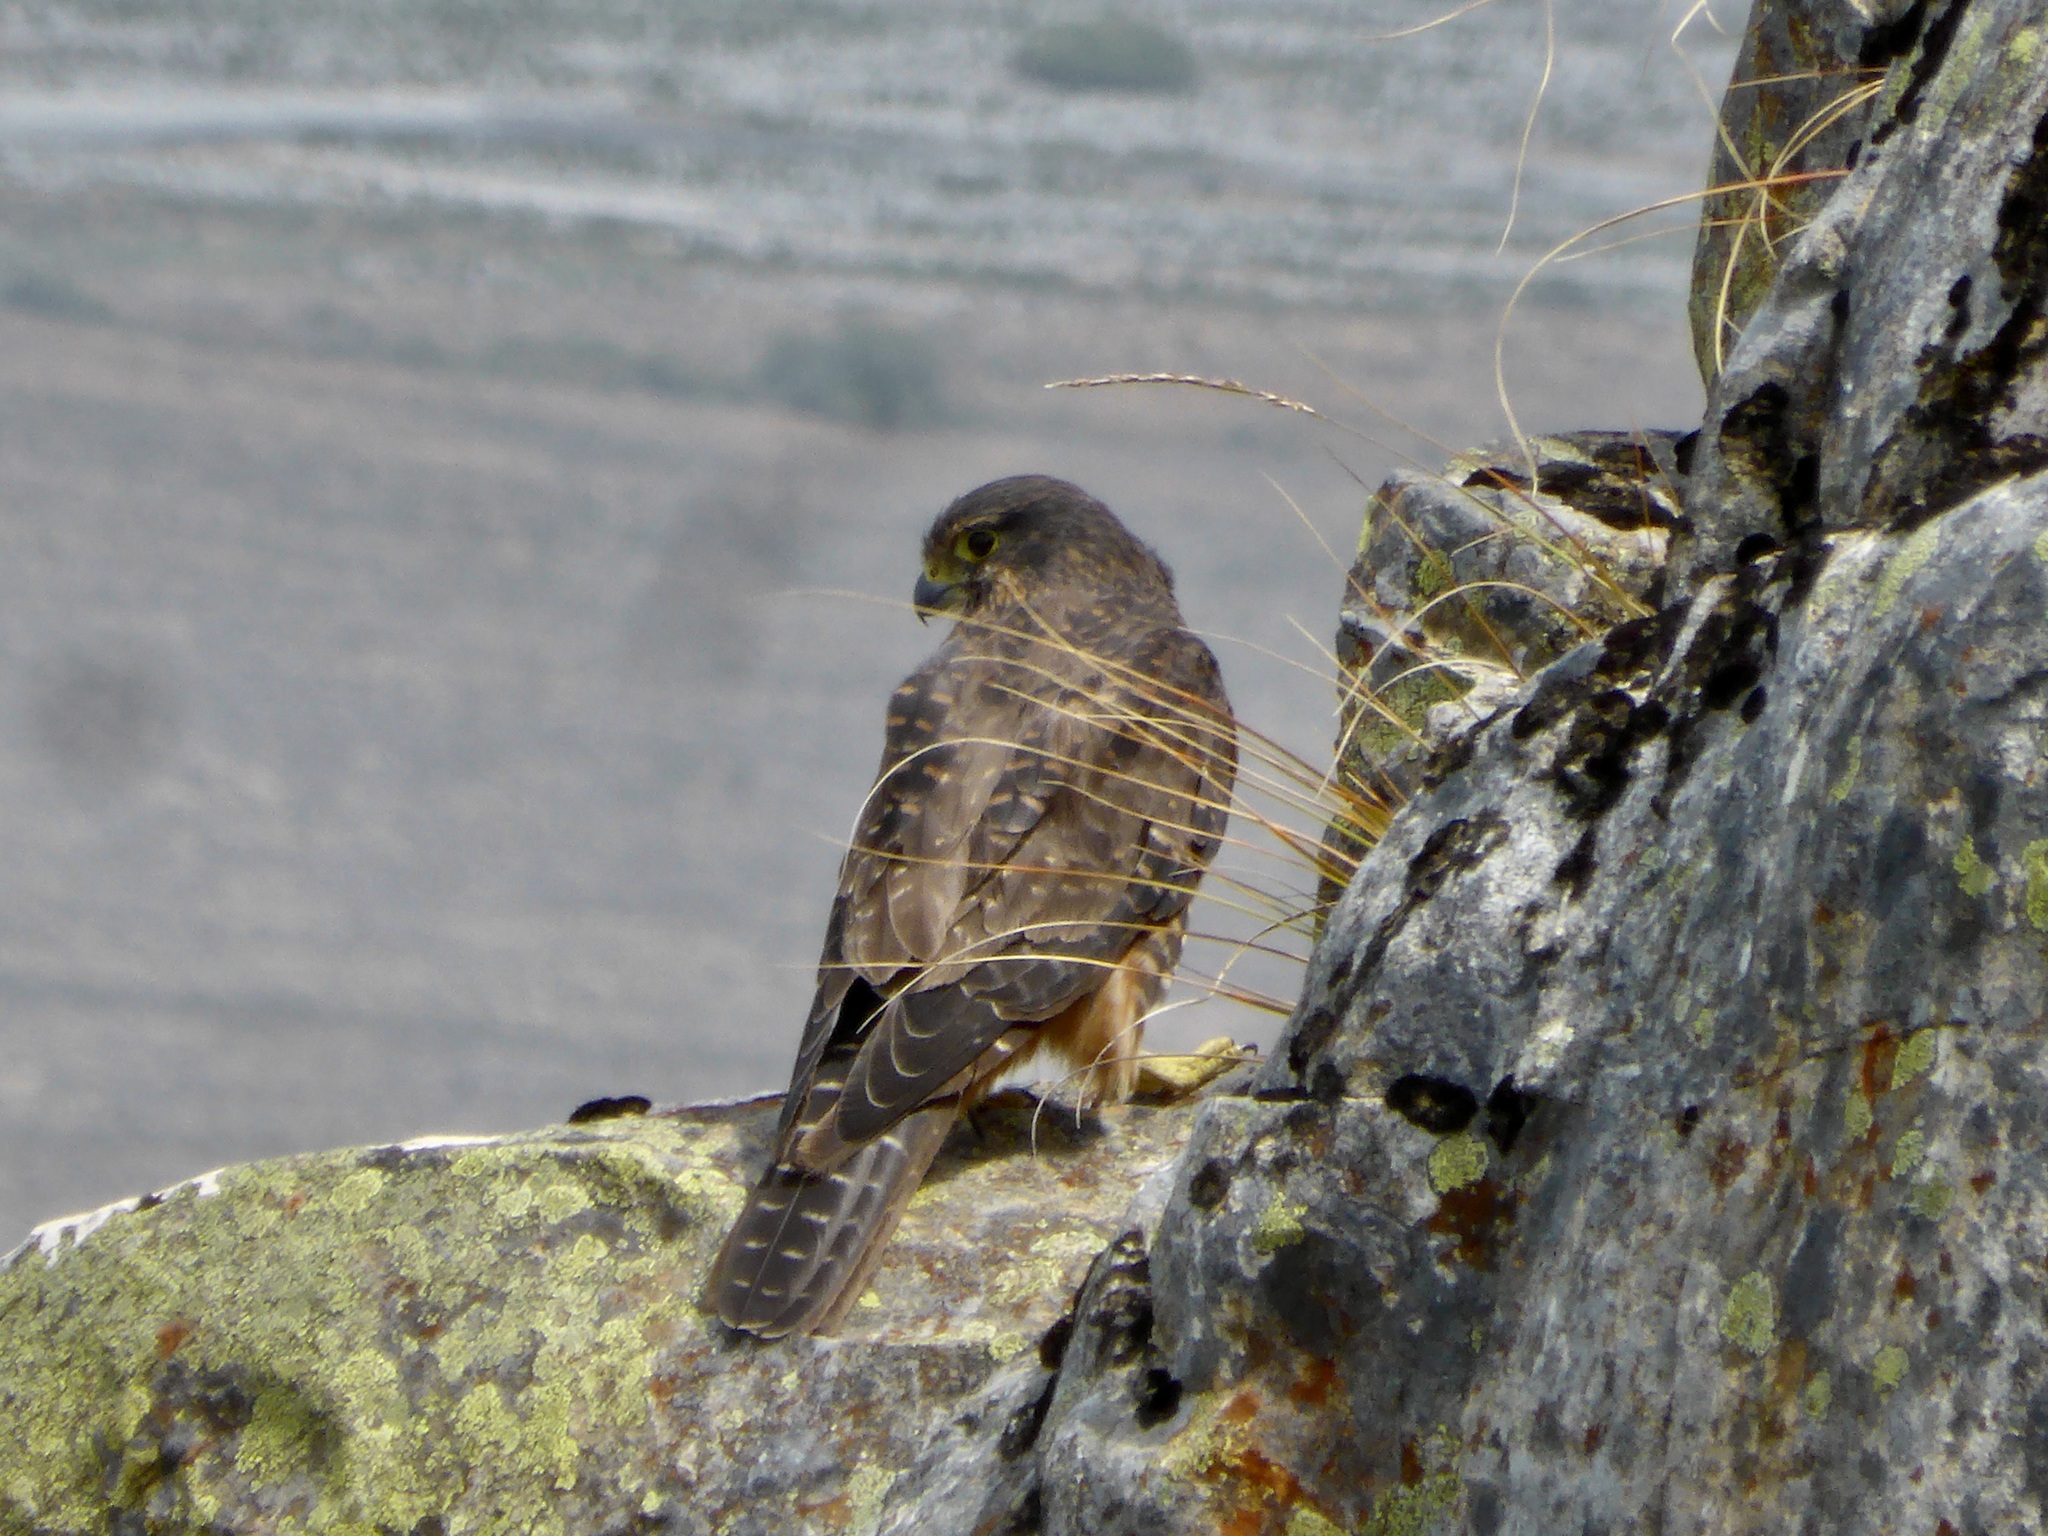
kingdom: Animalia
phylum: Chordata
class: Aves
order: Falconiformes
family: Falconidae
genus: Falco
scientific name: Falco novaeseelandiae
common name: New zealand falcon
